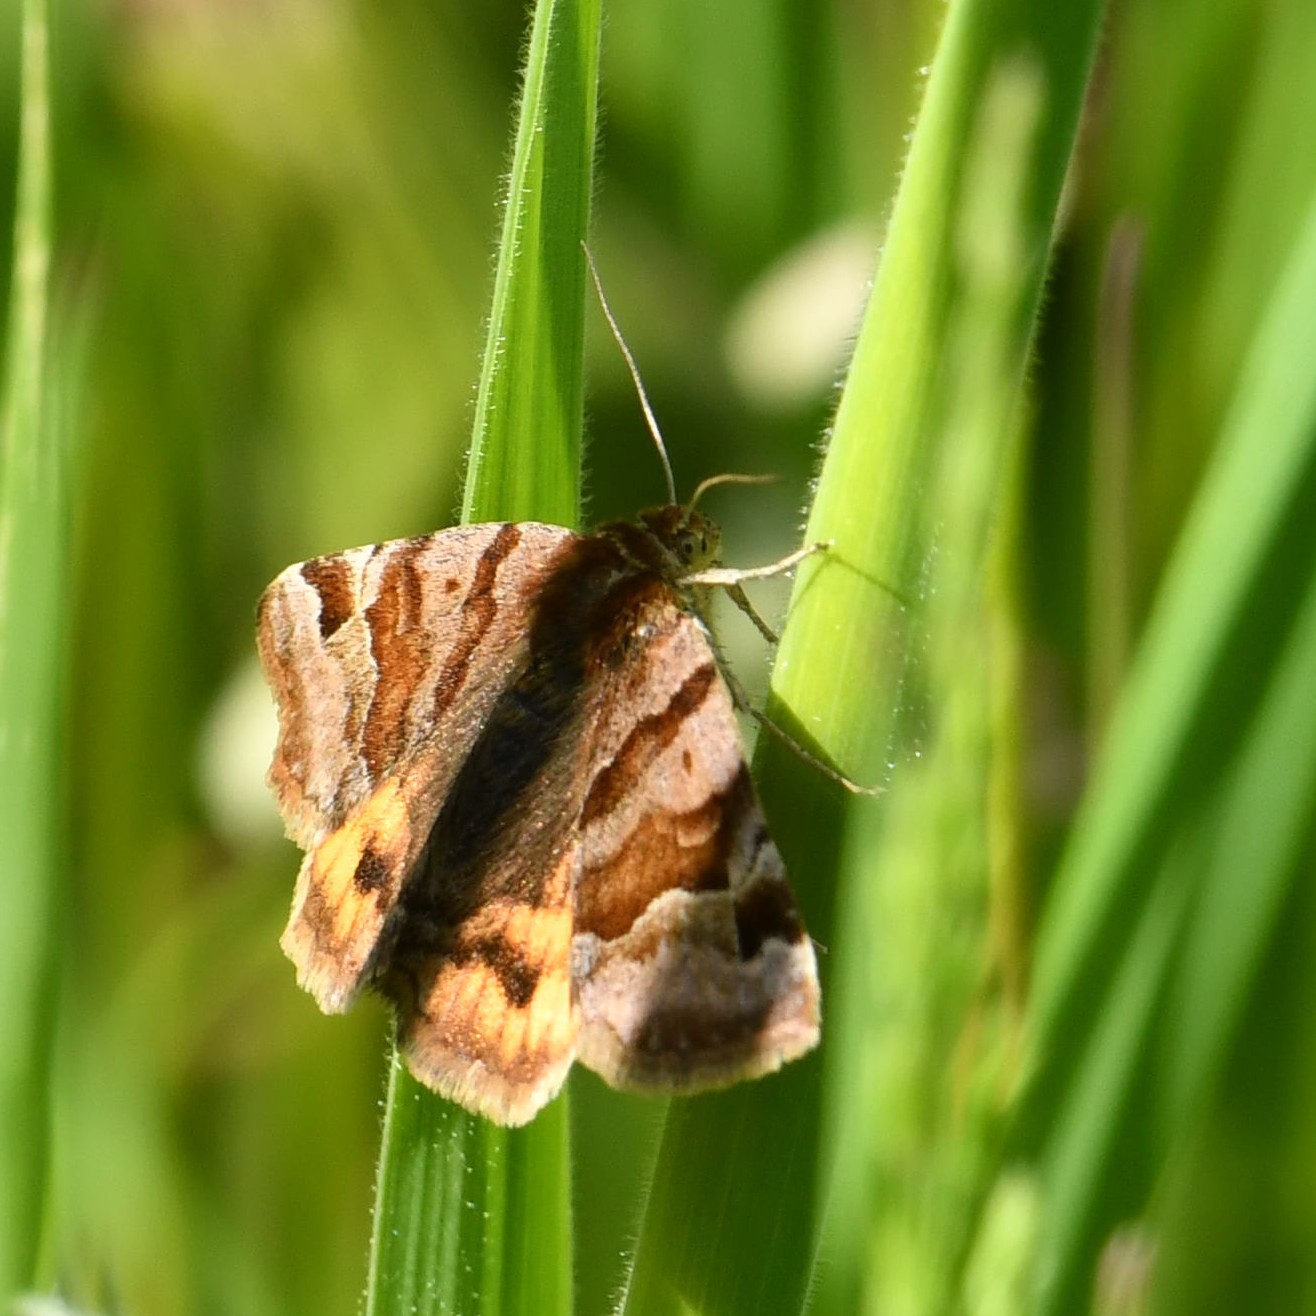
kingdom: Animalia
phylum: Arthropoda
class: Insecta
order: Lepidoptera
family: Erebidae
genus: Euclidia
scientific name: Euclidia glyphica
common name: Burnet companion
